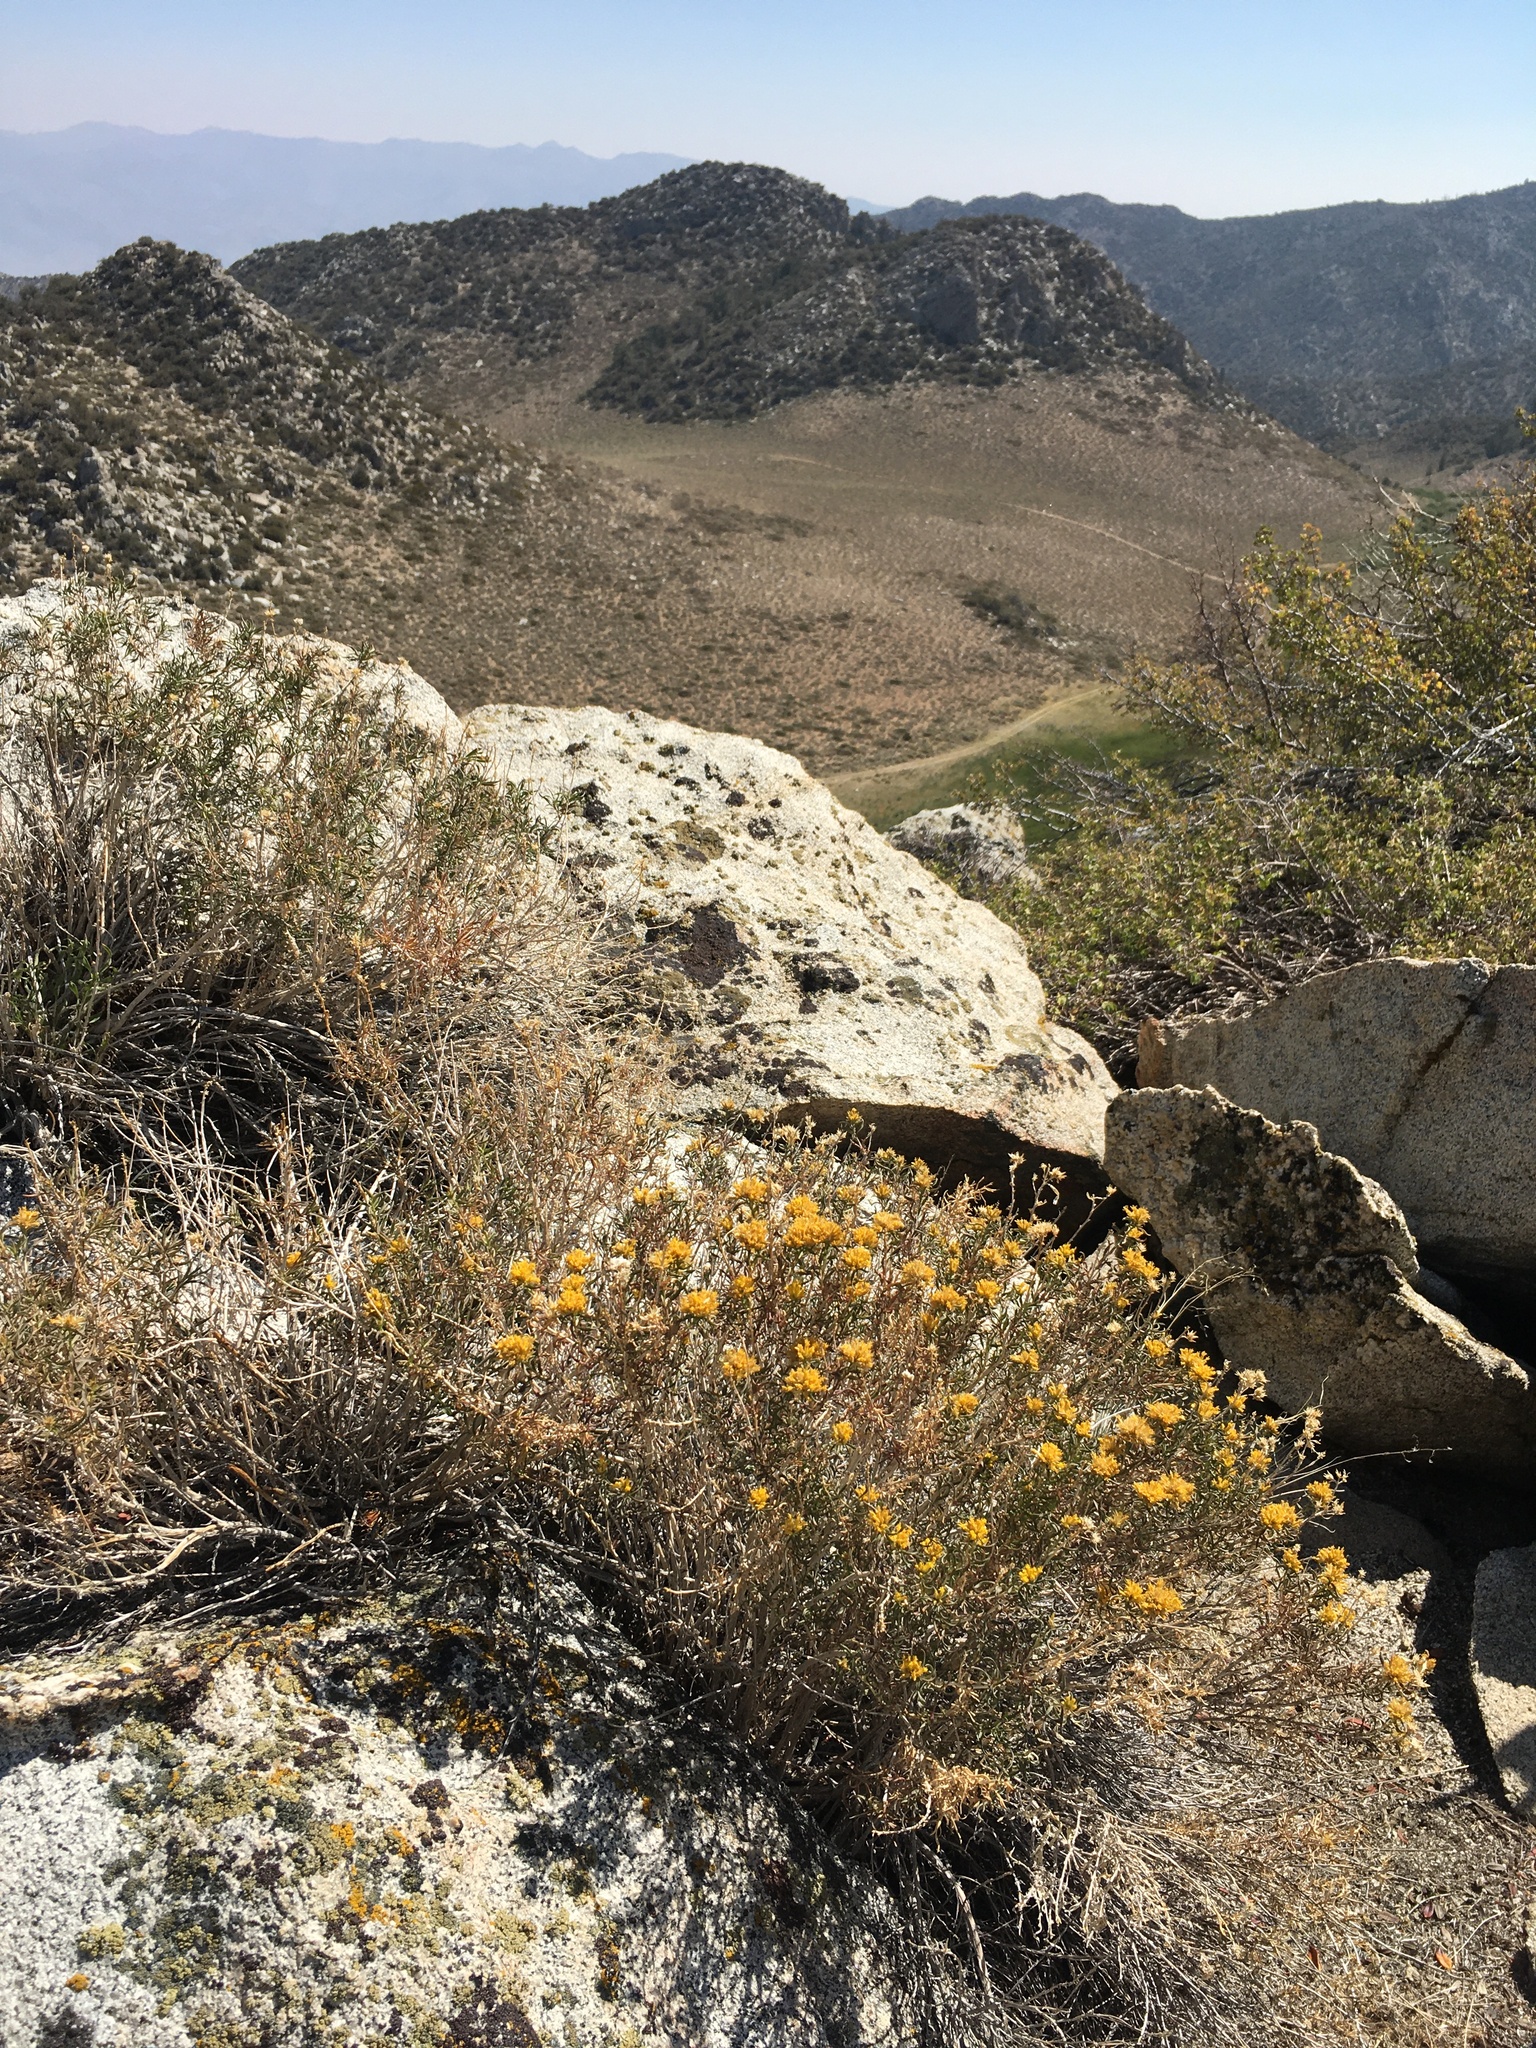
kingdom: Plantae
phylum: Tracheophyta
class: Magnoliopsida
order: Asterales
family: Asteraceae
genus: Chrysothamnus
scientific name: Chrysothamnus viscidiflorus
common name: Yellow rabbitbrush
